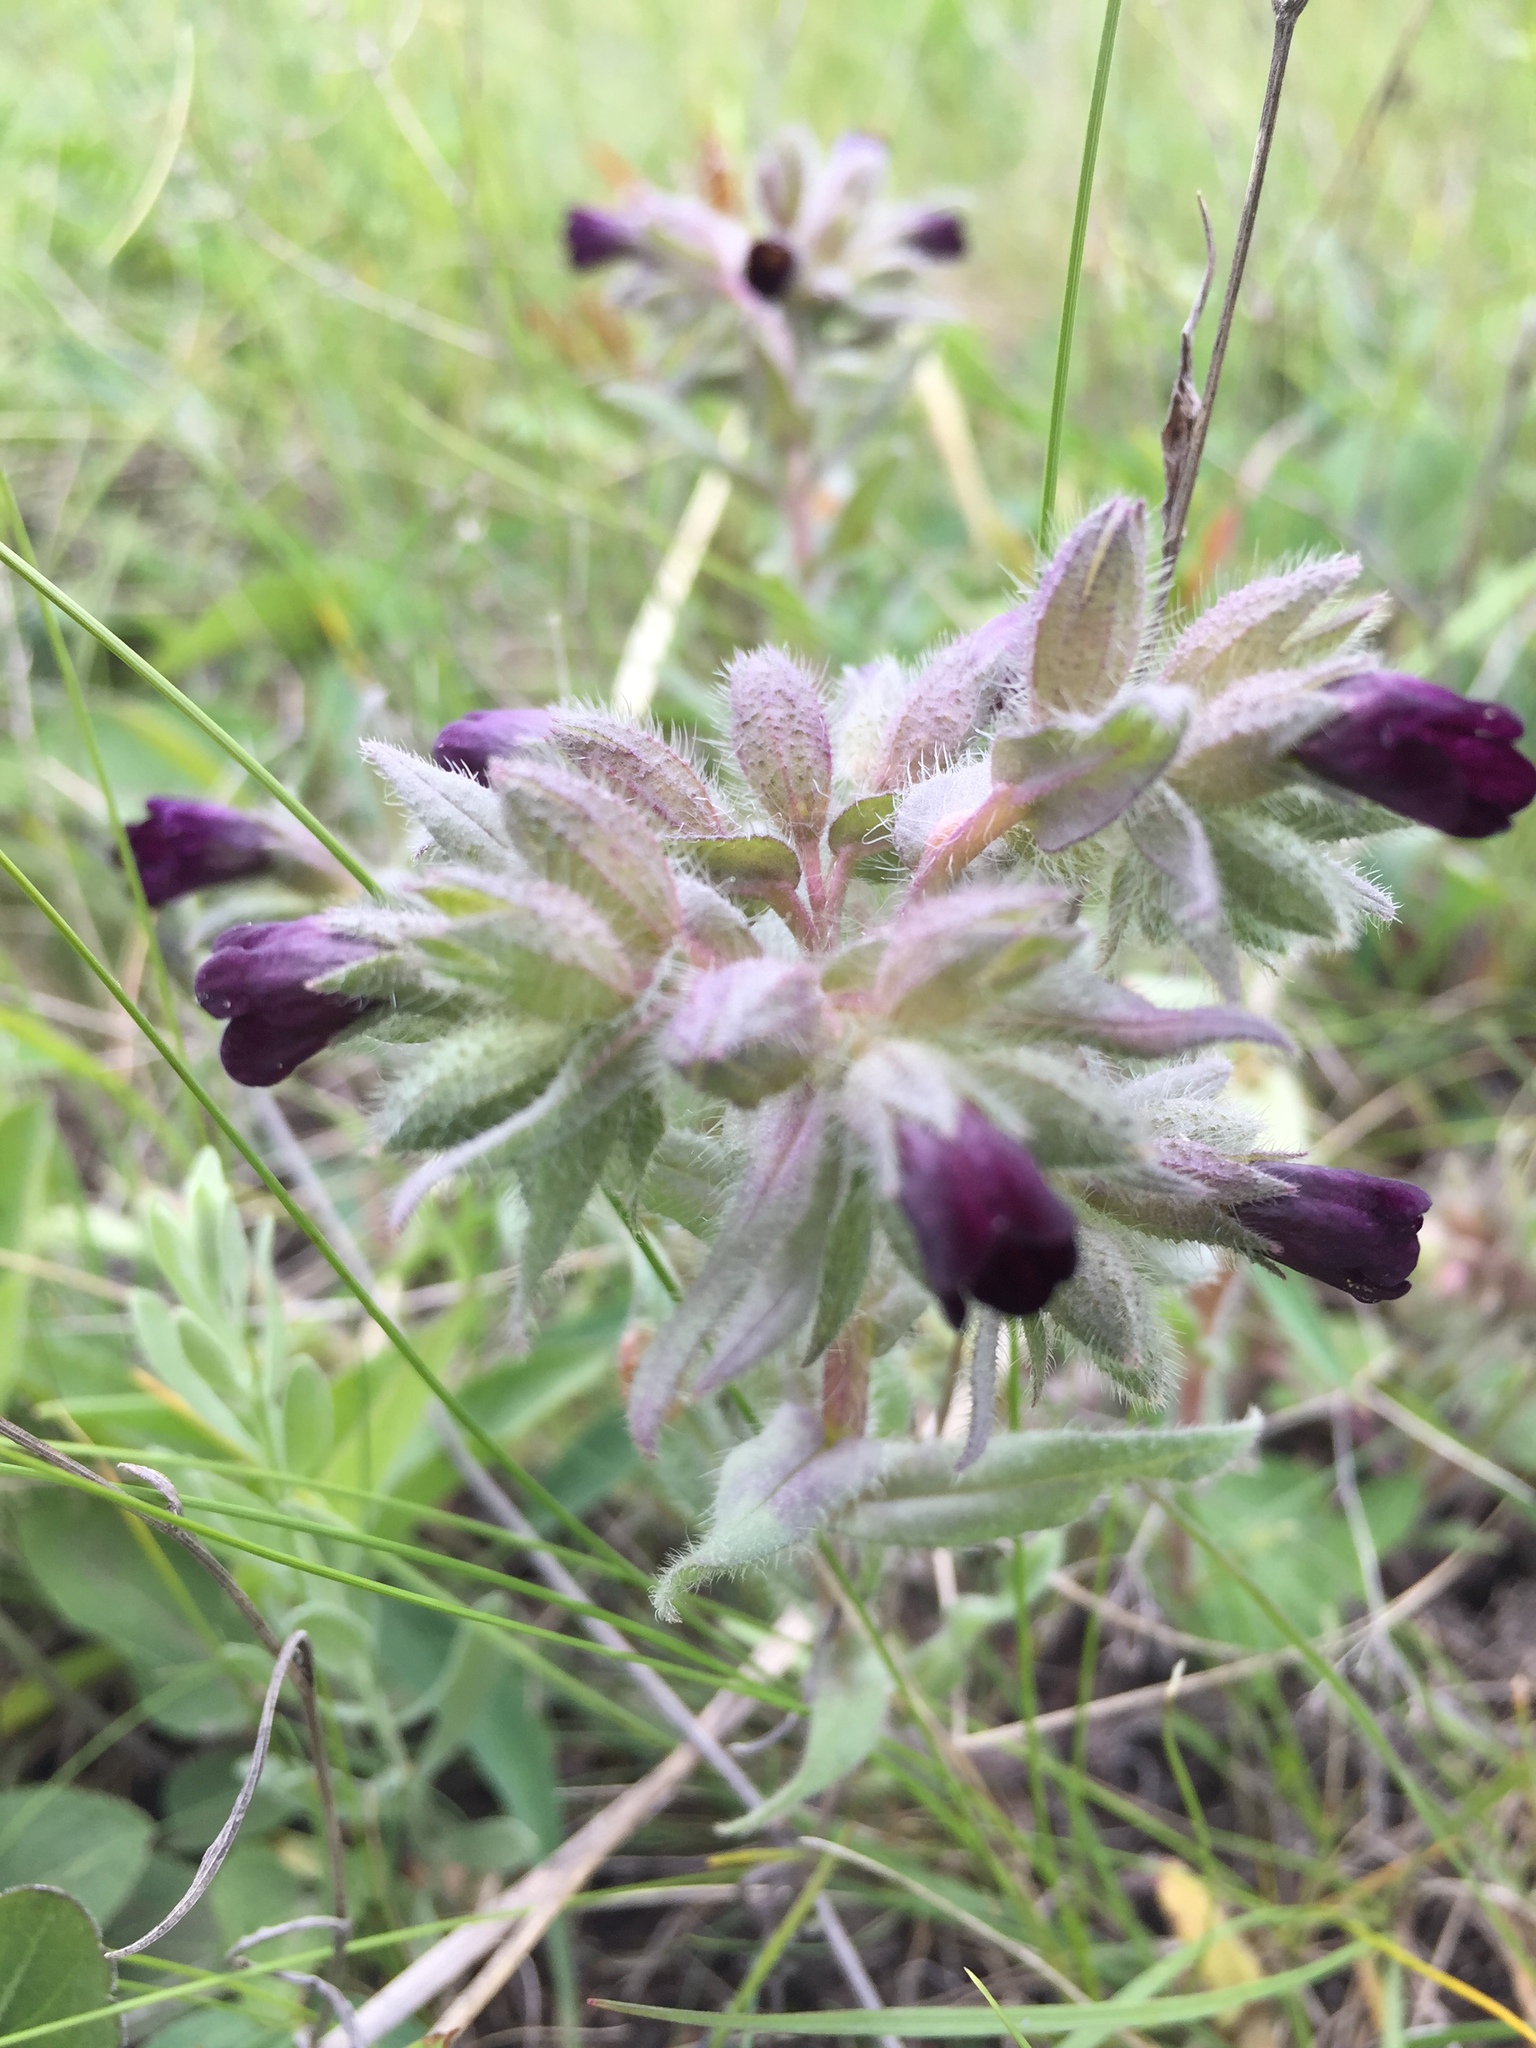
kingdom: Plantae
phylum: Tracheophyta
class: Magnoliopsida
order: Boraginales
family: Boraginaceae
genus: Nonea
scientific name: Nonea pulla
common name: Brown nonea
